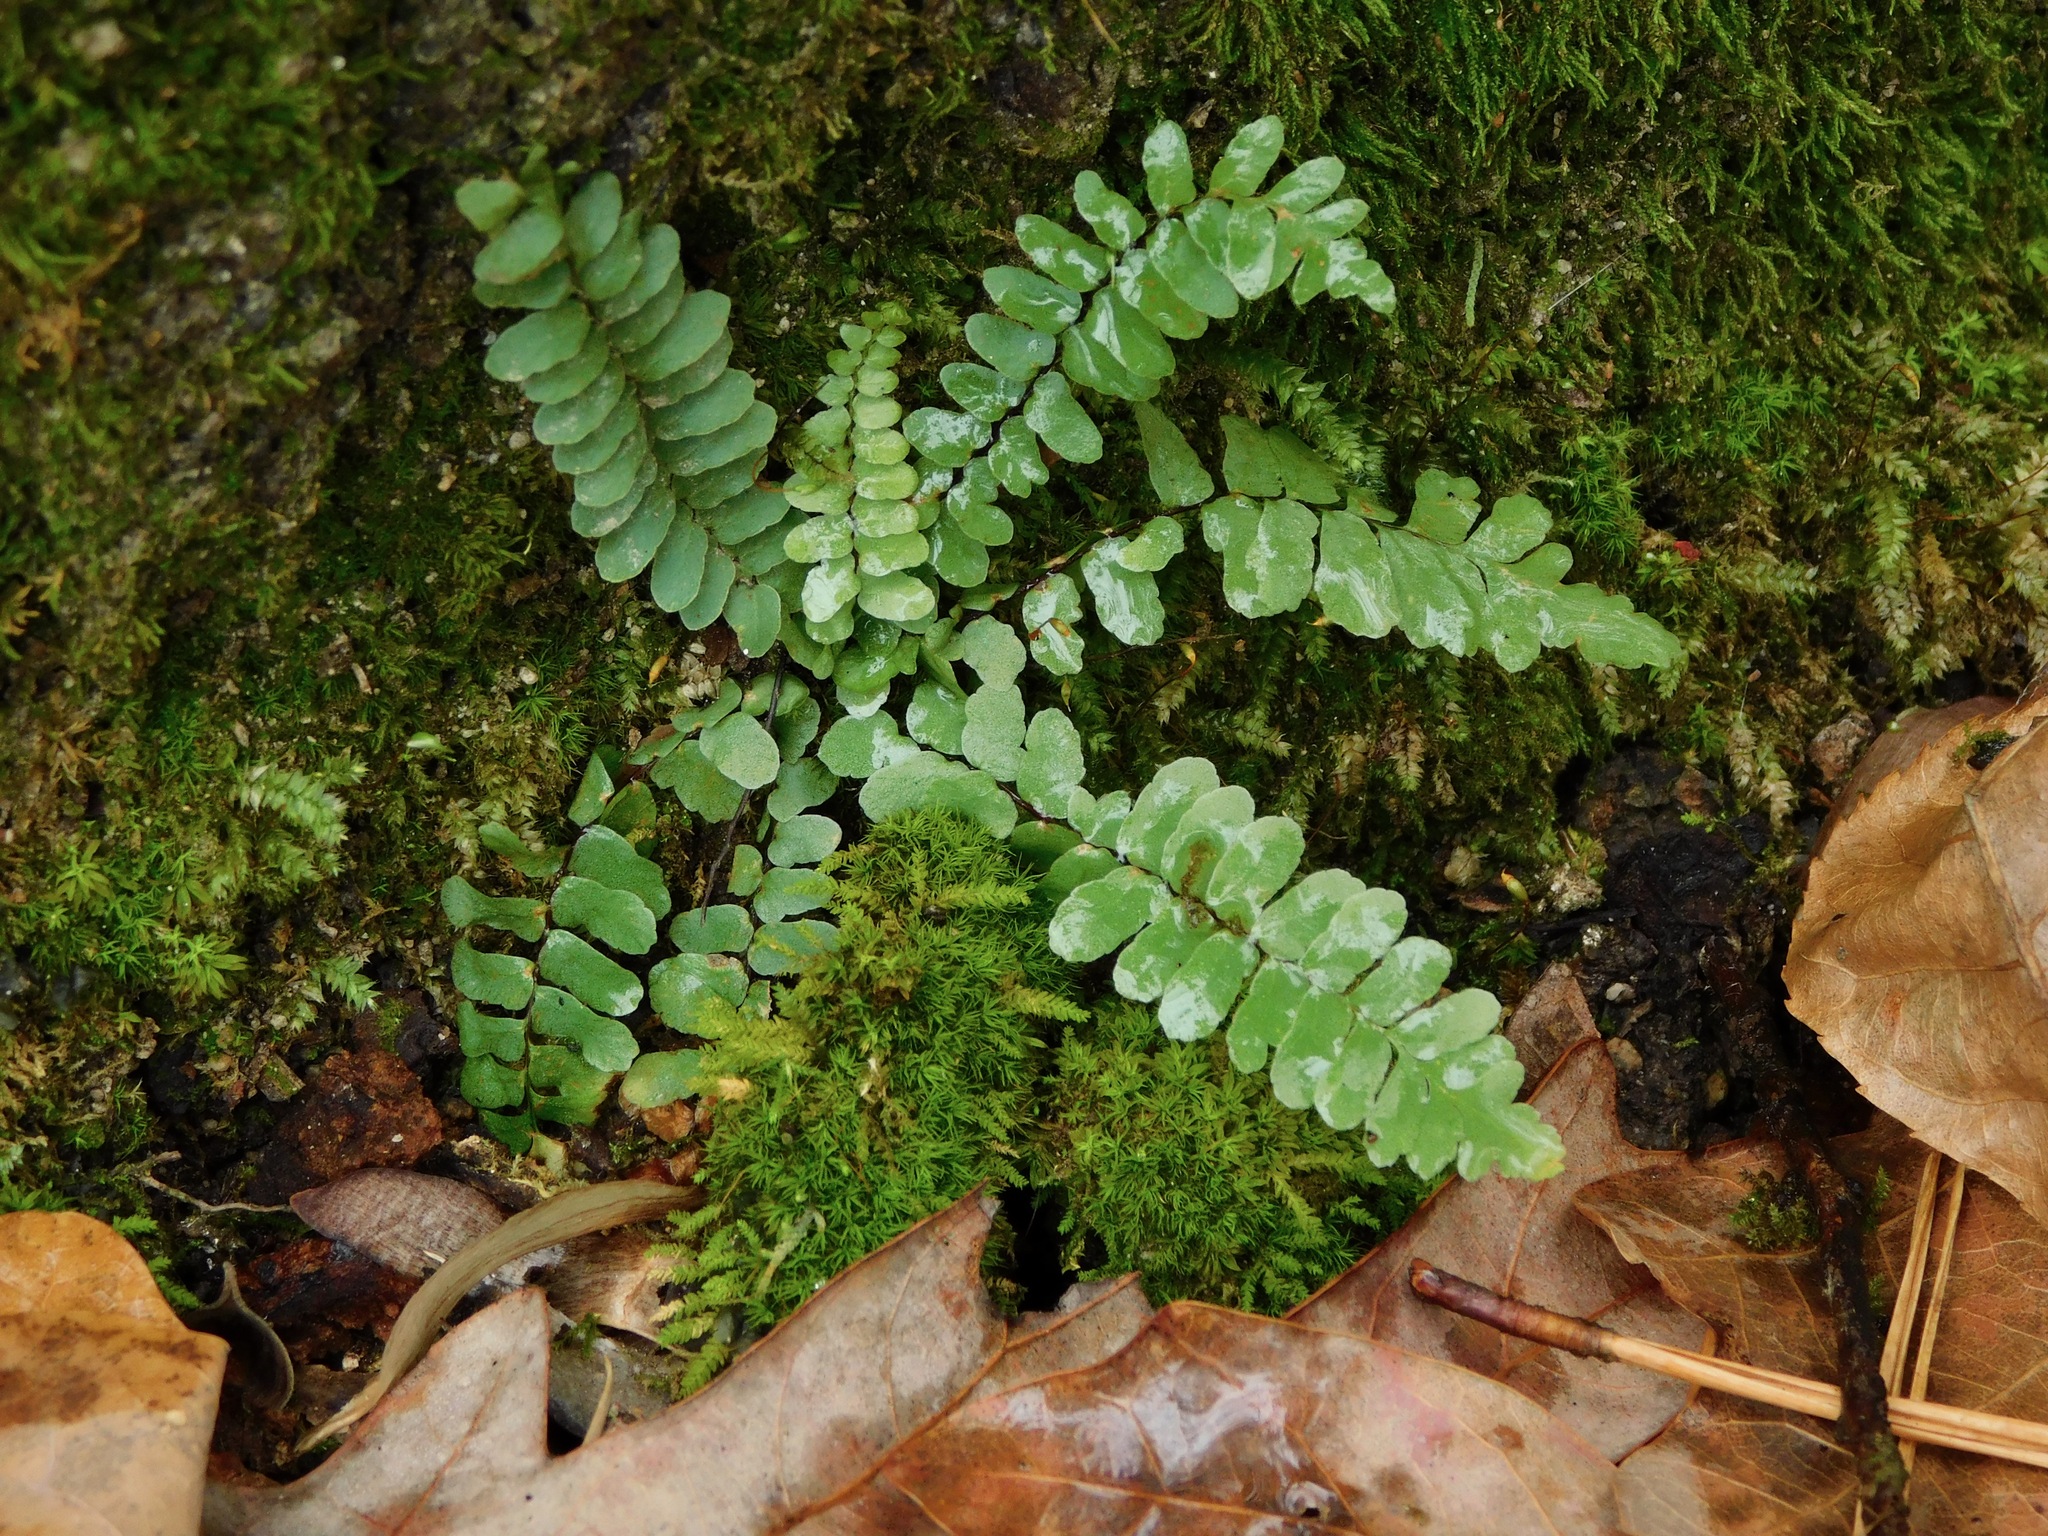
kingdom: Plantae
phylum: Tracheophyta
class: Polypodiopsida
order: Polypodiales
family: Aspleniaceae
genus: Asplenium
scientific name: Asplenium platyneuron
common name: Ebony spleenwort
